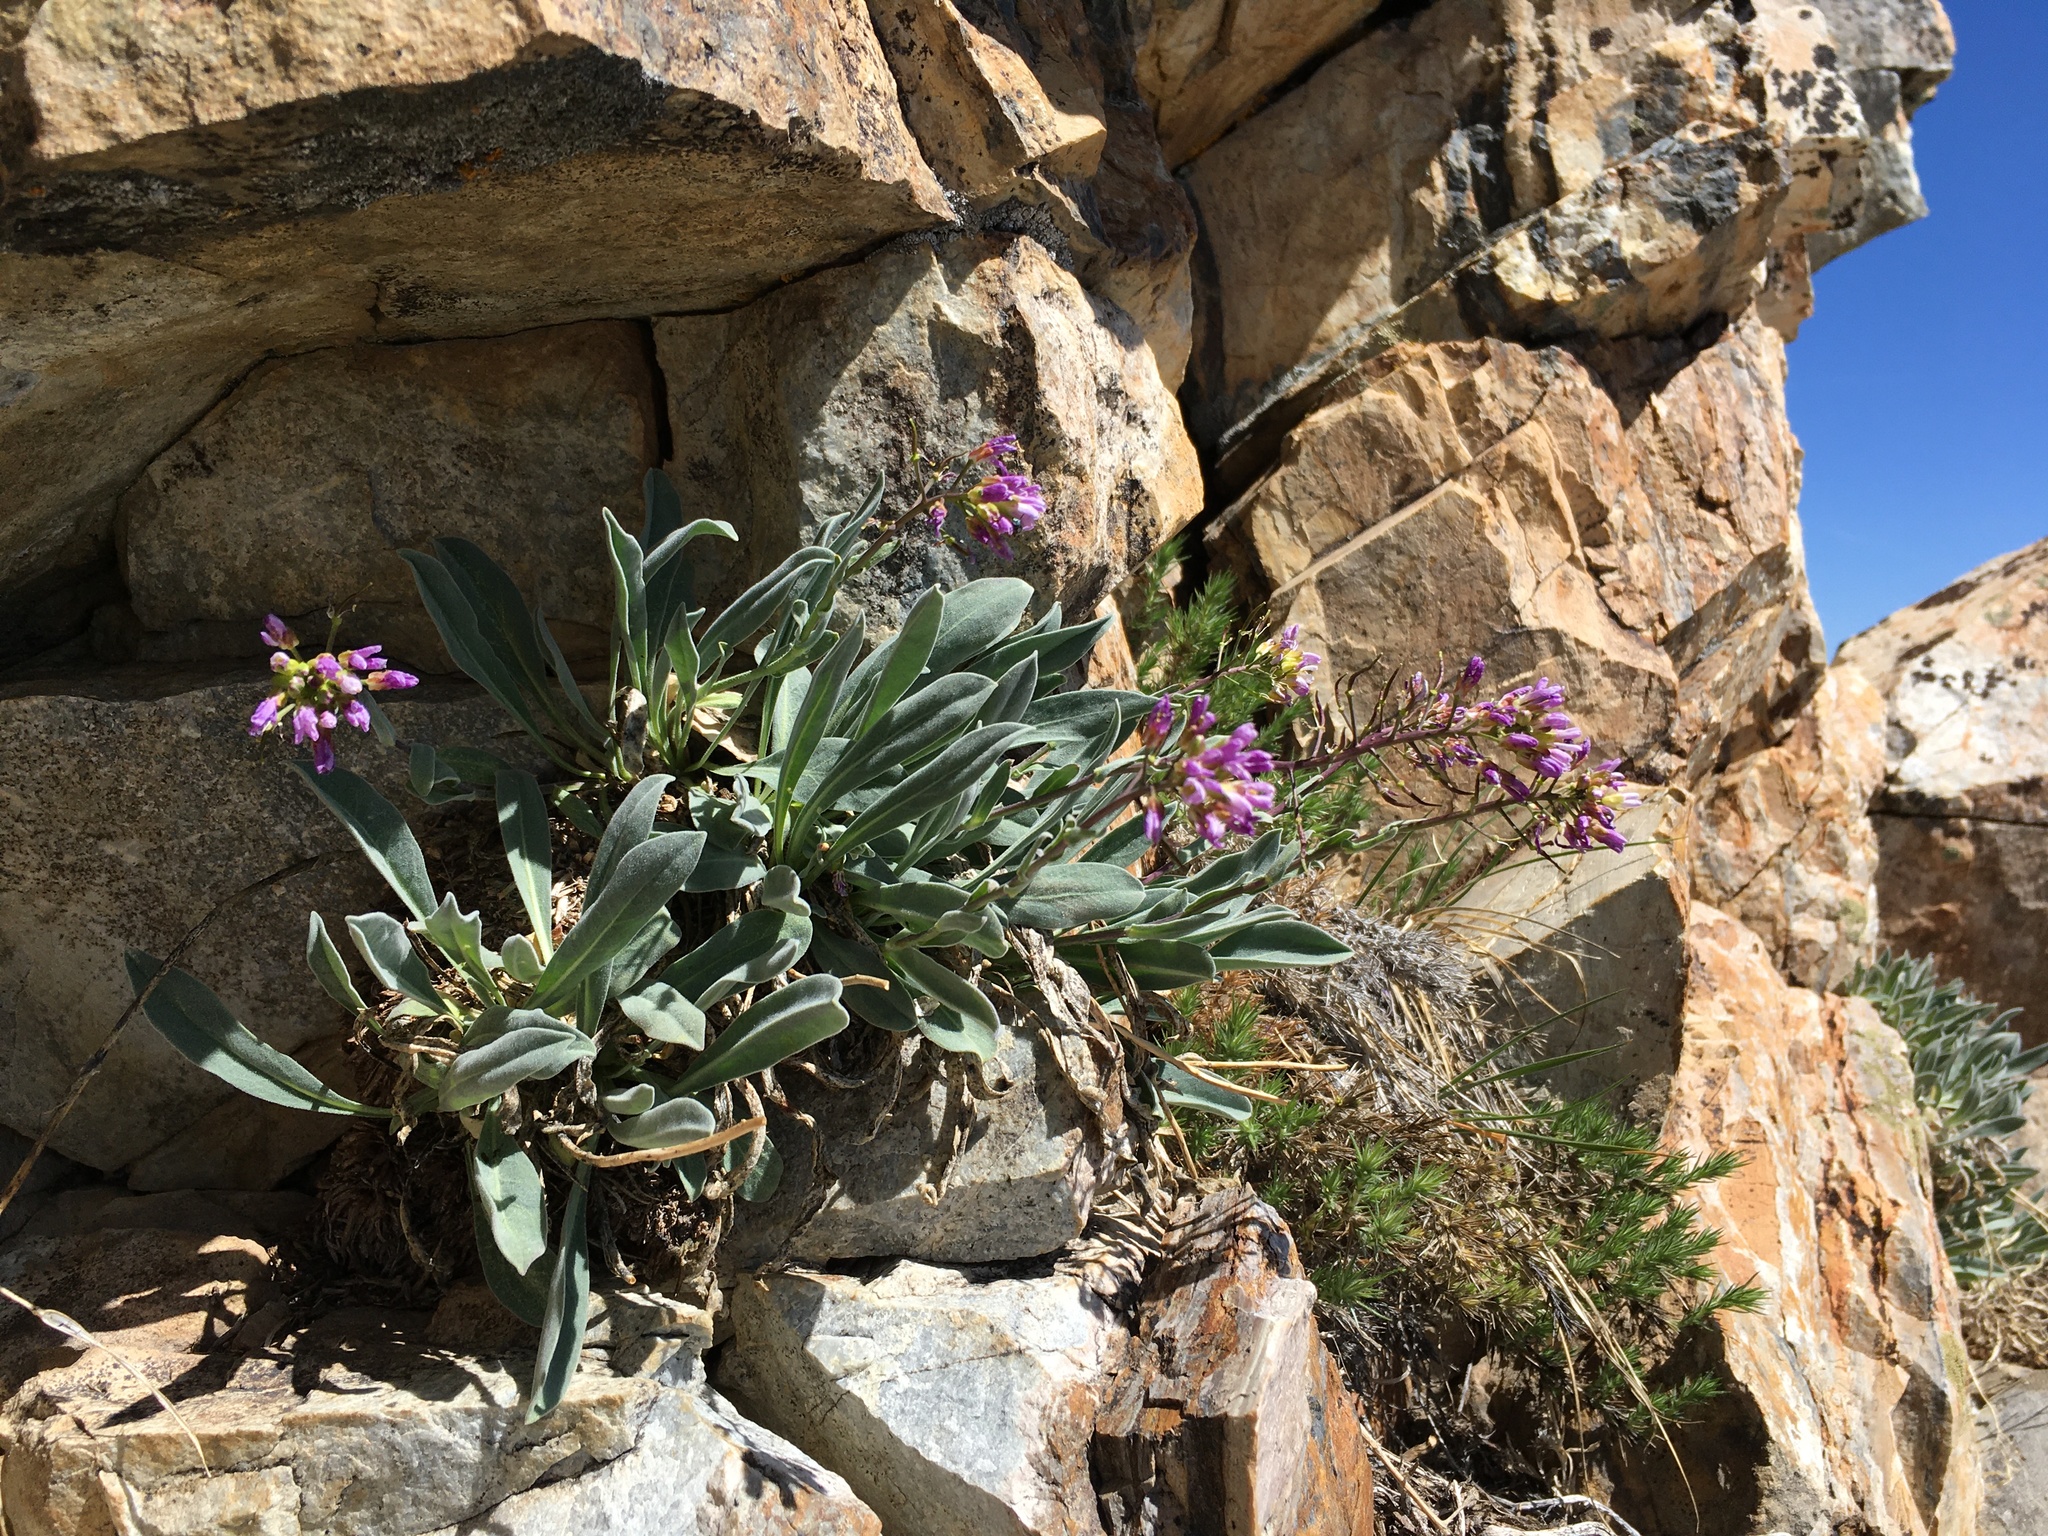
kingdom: Plantae
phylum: Tracheophyta
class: Magnoliopsida
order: Brassicales
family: Brassicaceae
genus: Phoenicaulis
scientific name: Phoenicaulis cheiranthoides
